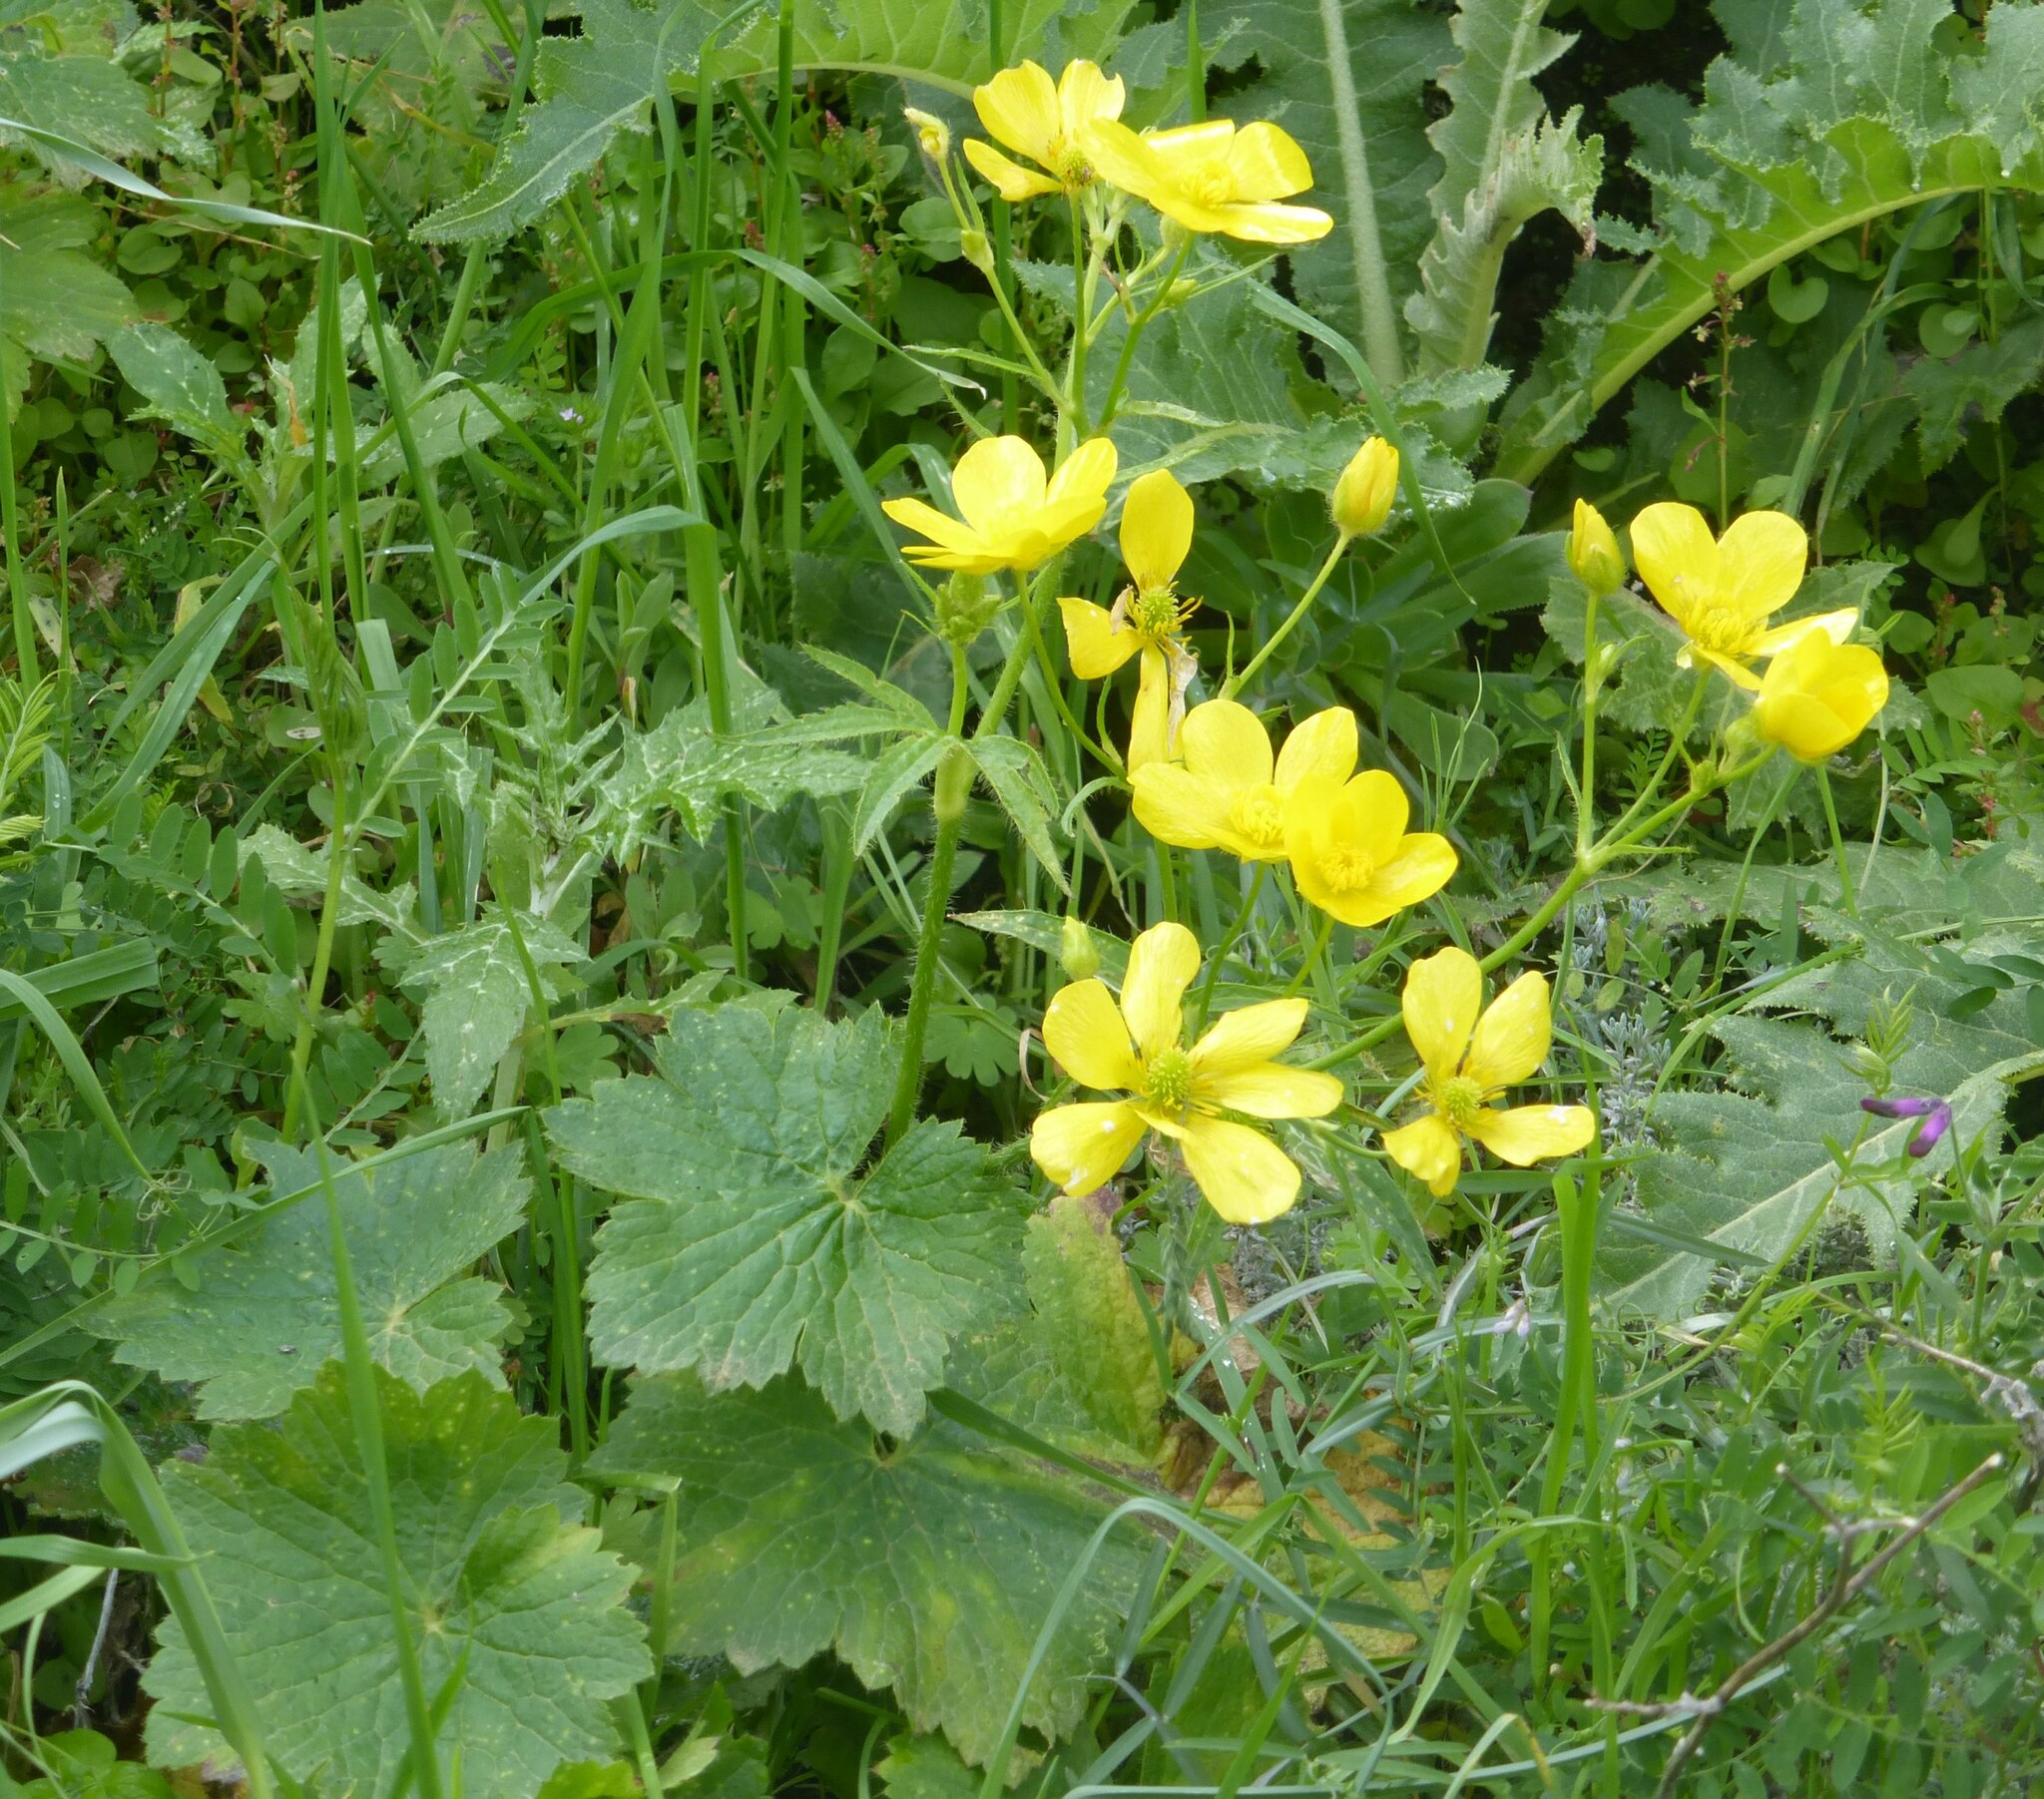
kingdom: Plantae
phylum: Tracheophyta
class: Magnoliopsida
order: Ranunculales
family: Ranunculaceae
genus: Ranunculus
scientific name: Ranunculus cortusifolius
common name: Azores buttercup
